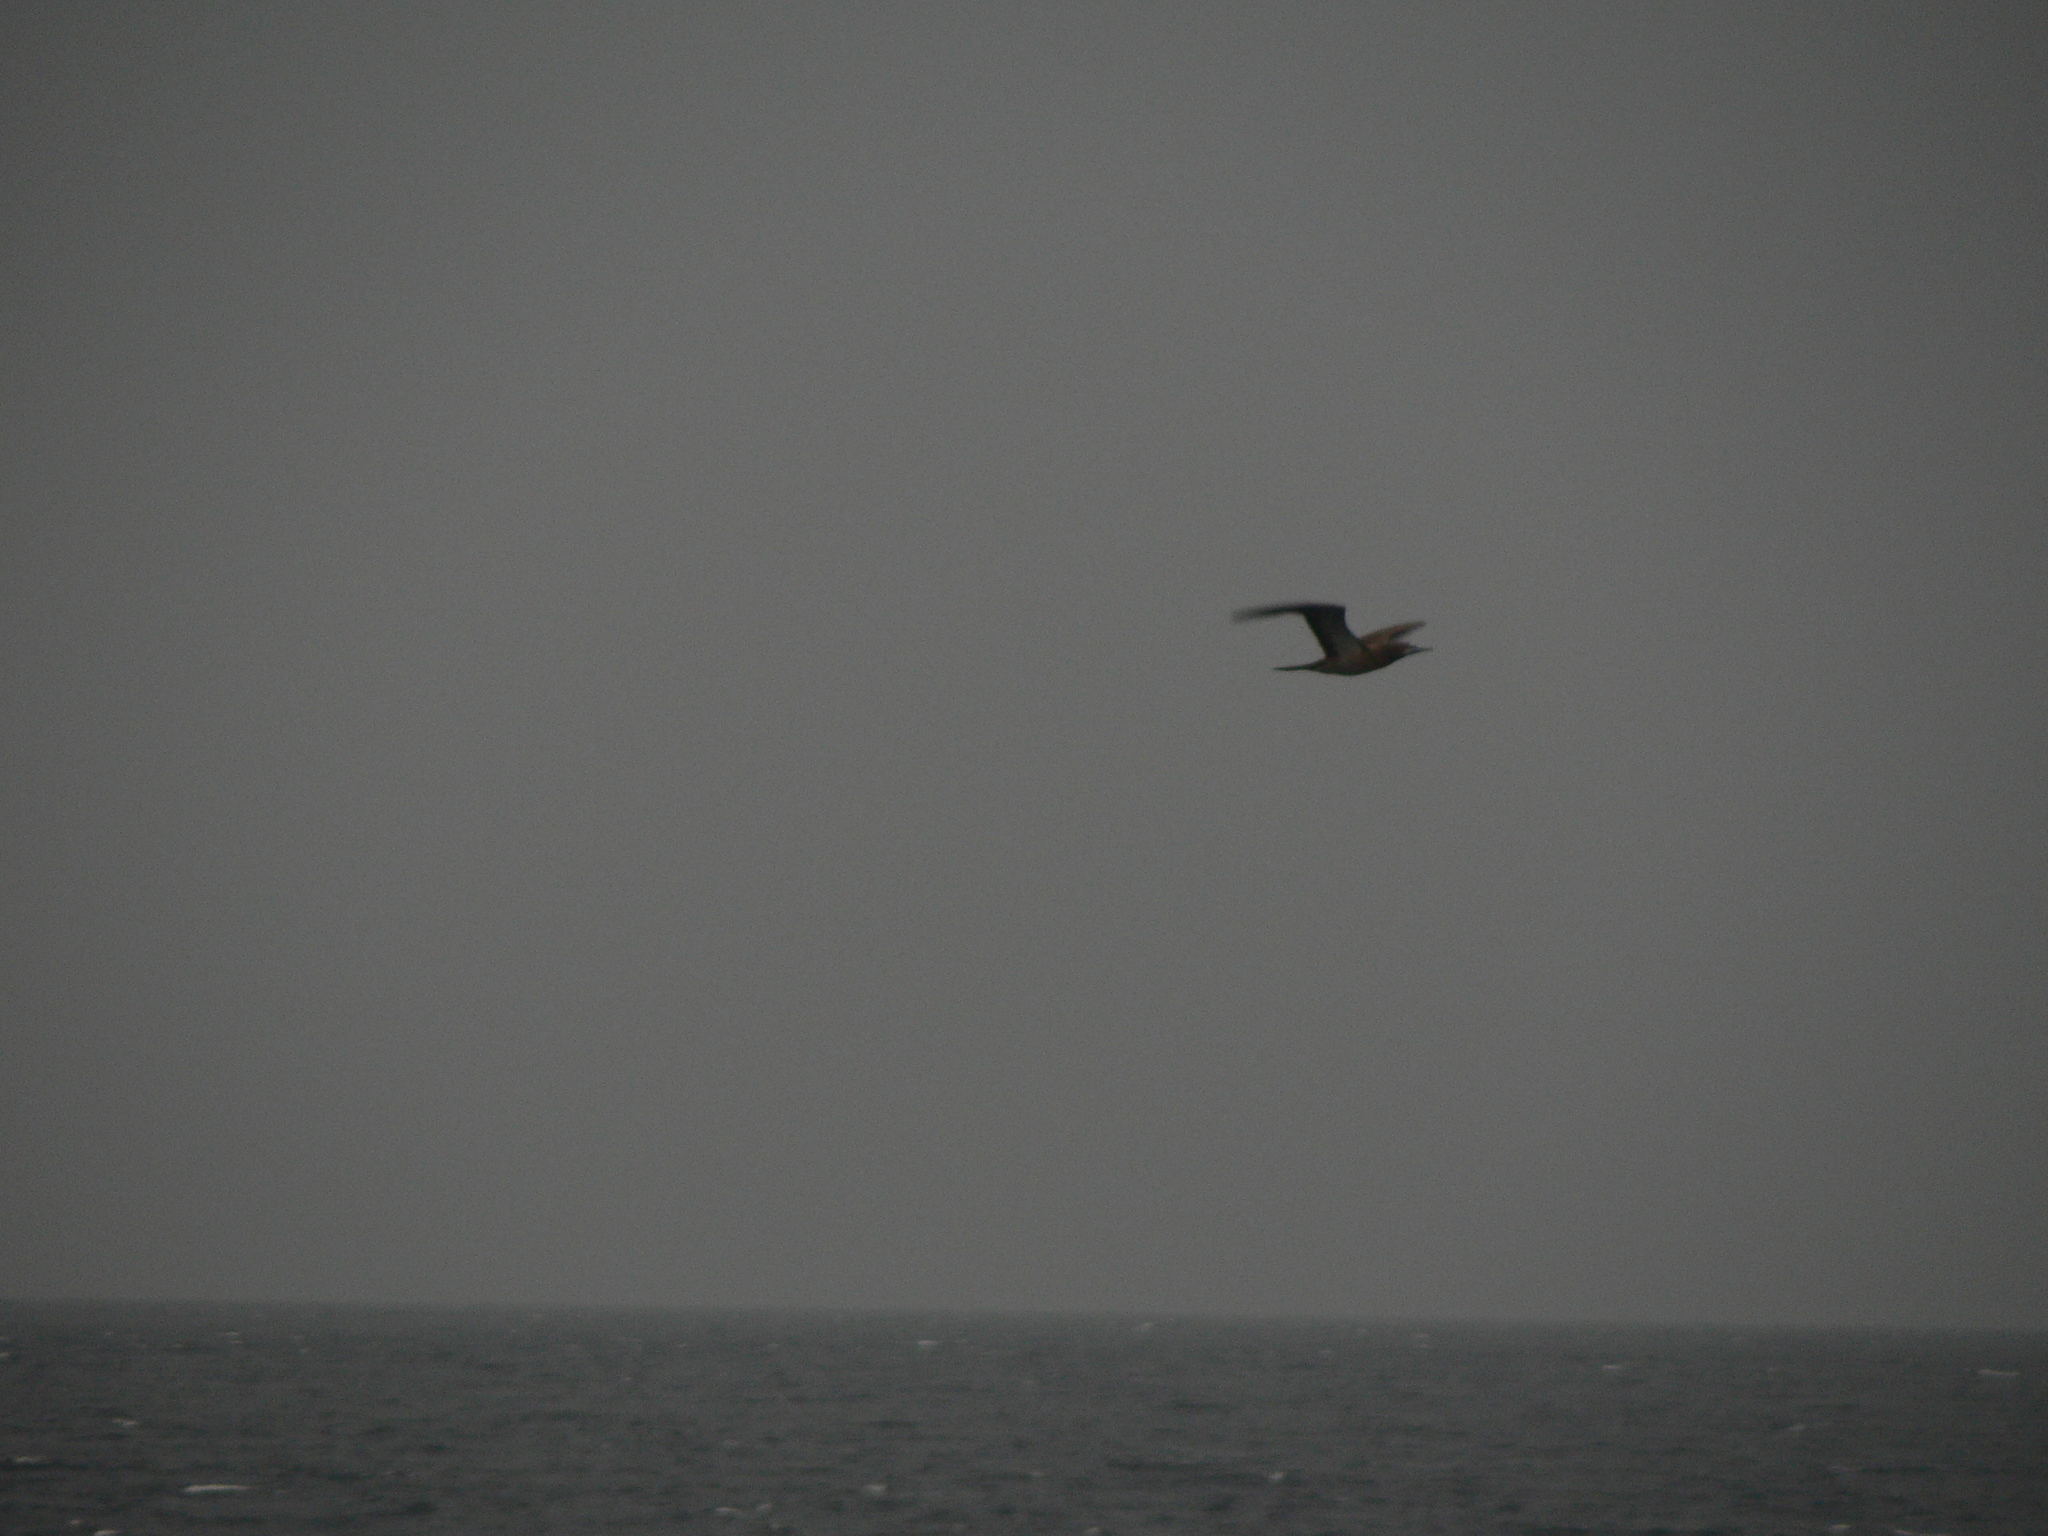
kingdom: Animalia
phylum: Chordata
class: Aves
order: Suliformes
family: Sulidae
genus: Sula
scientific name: Sula leucogaster
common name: Brown booby
